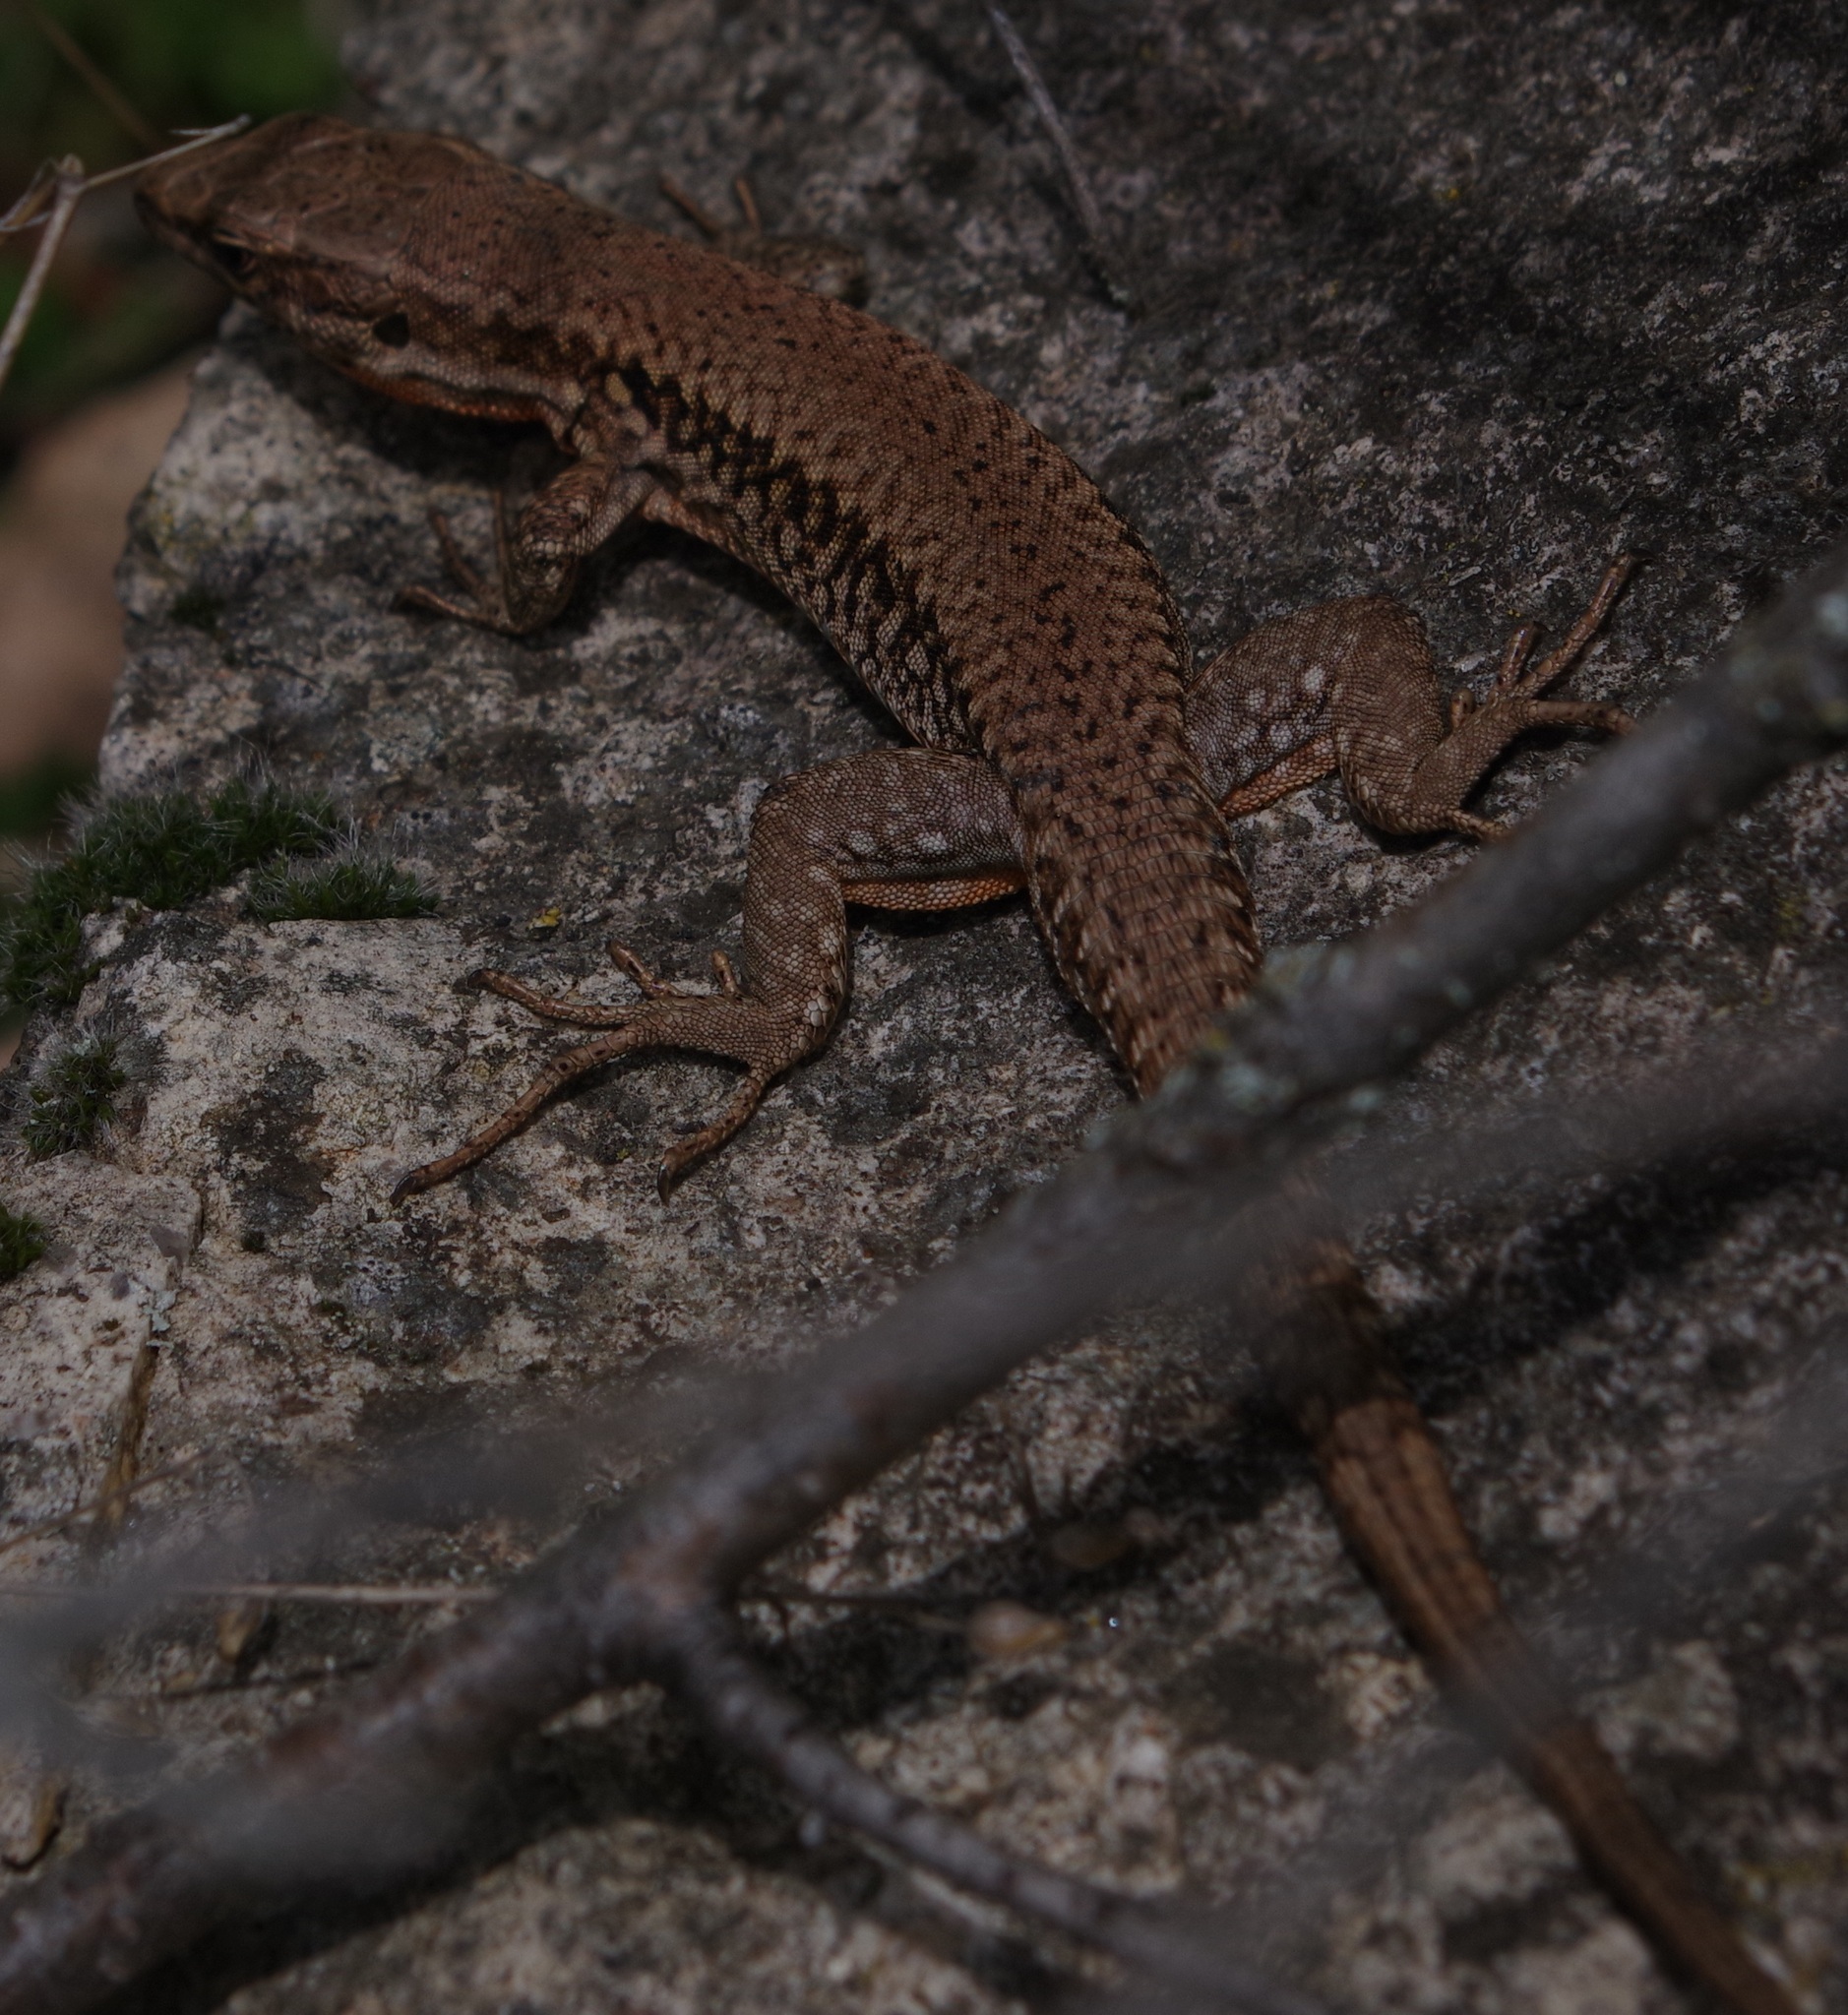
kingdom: Animalia
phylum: Chordata
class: Squamata
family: Lacertidae
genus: Podarcis
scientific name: Podarcis muralis
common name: Common wall lizard
